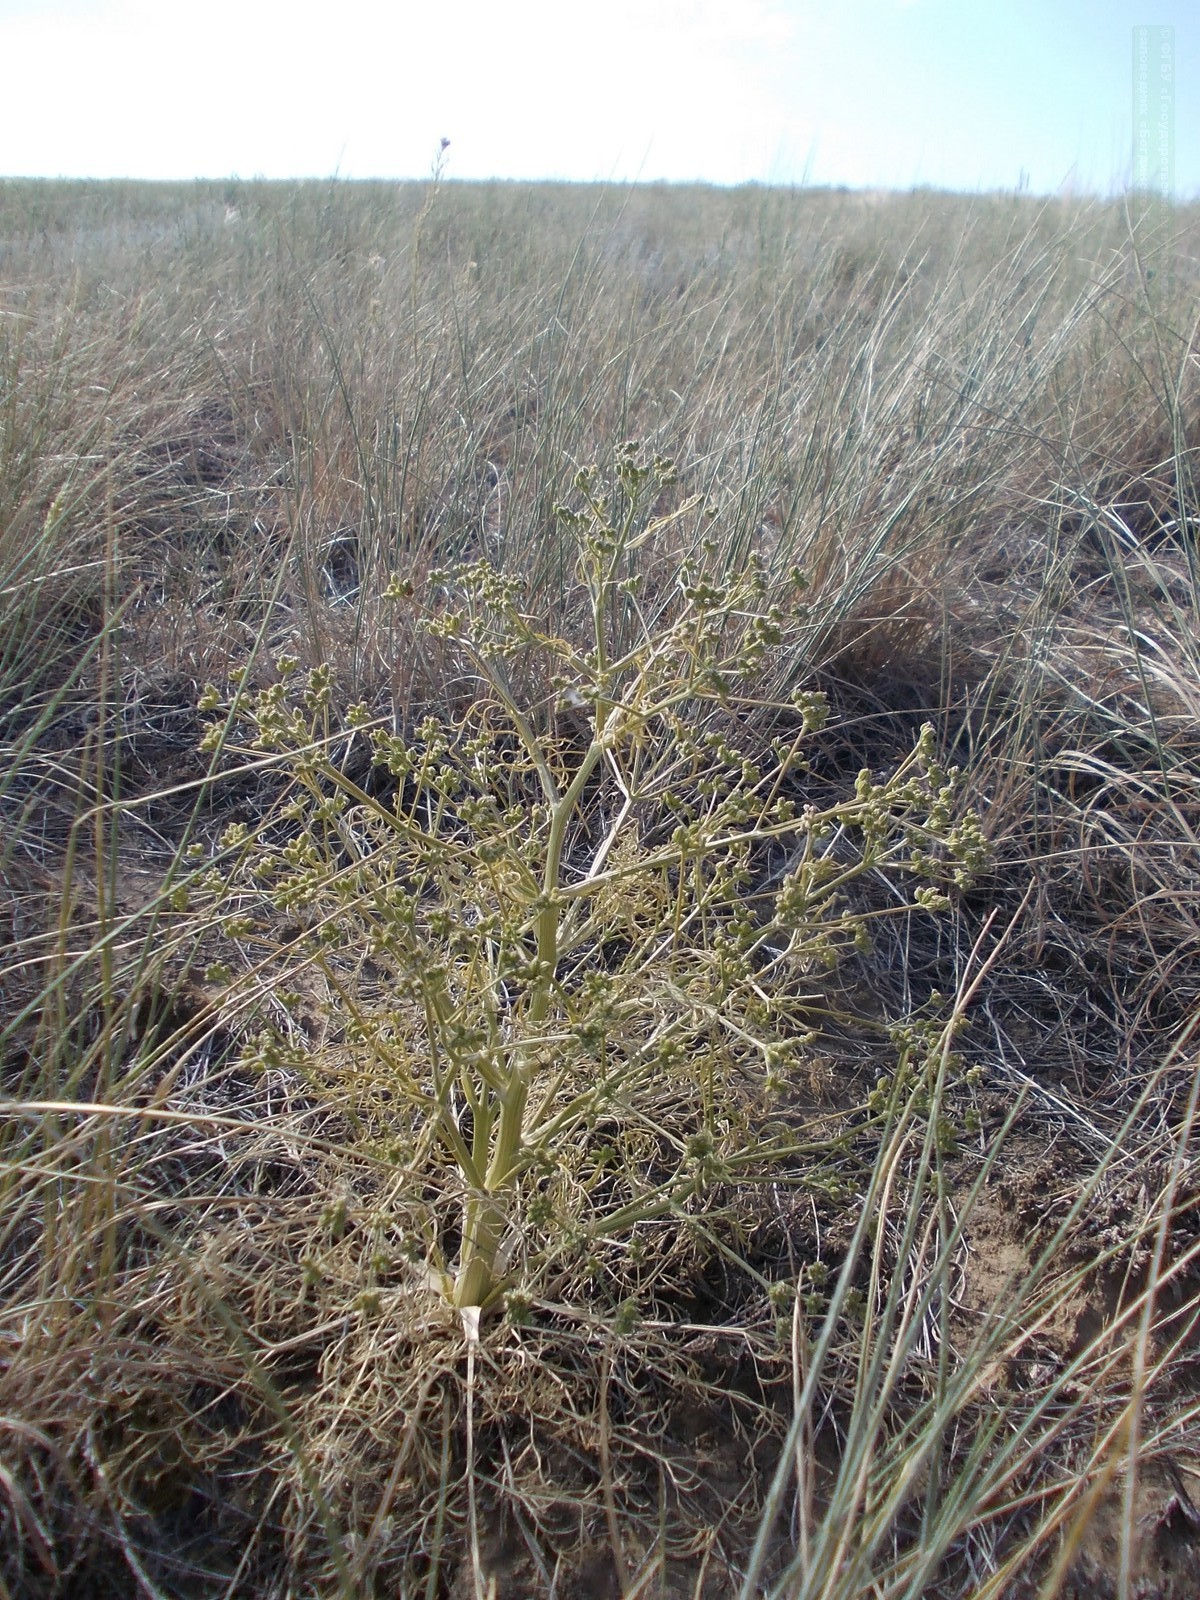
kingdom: Plantae
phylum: Tracheophyta
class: Magnoliopsida
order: Apiales
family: Apiaceae
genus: Trinia
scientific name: Trinia hispida
